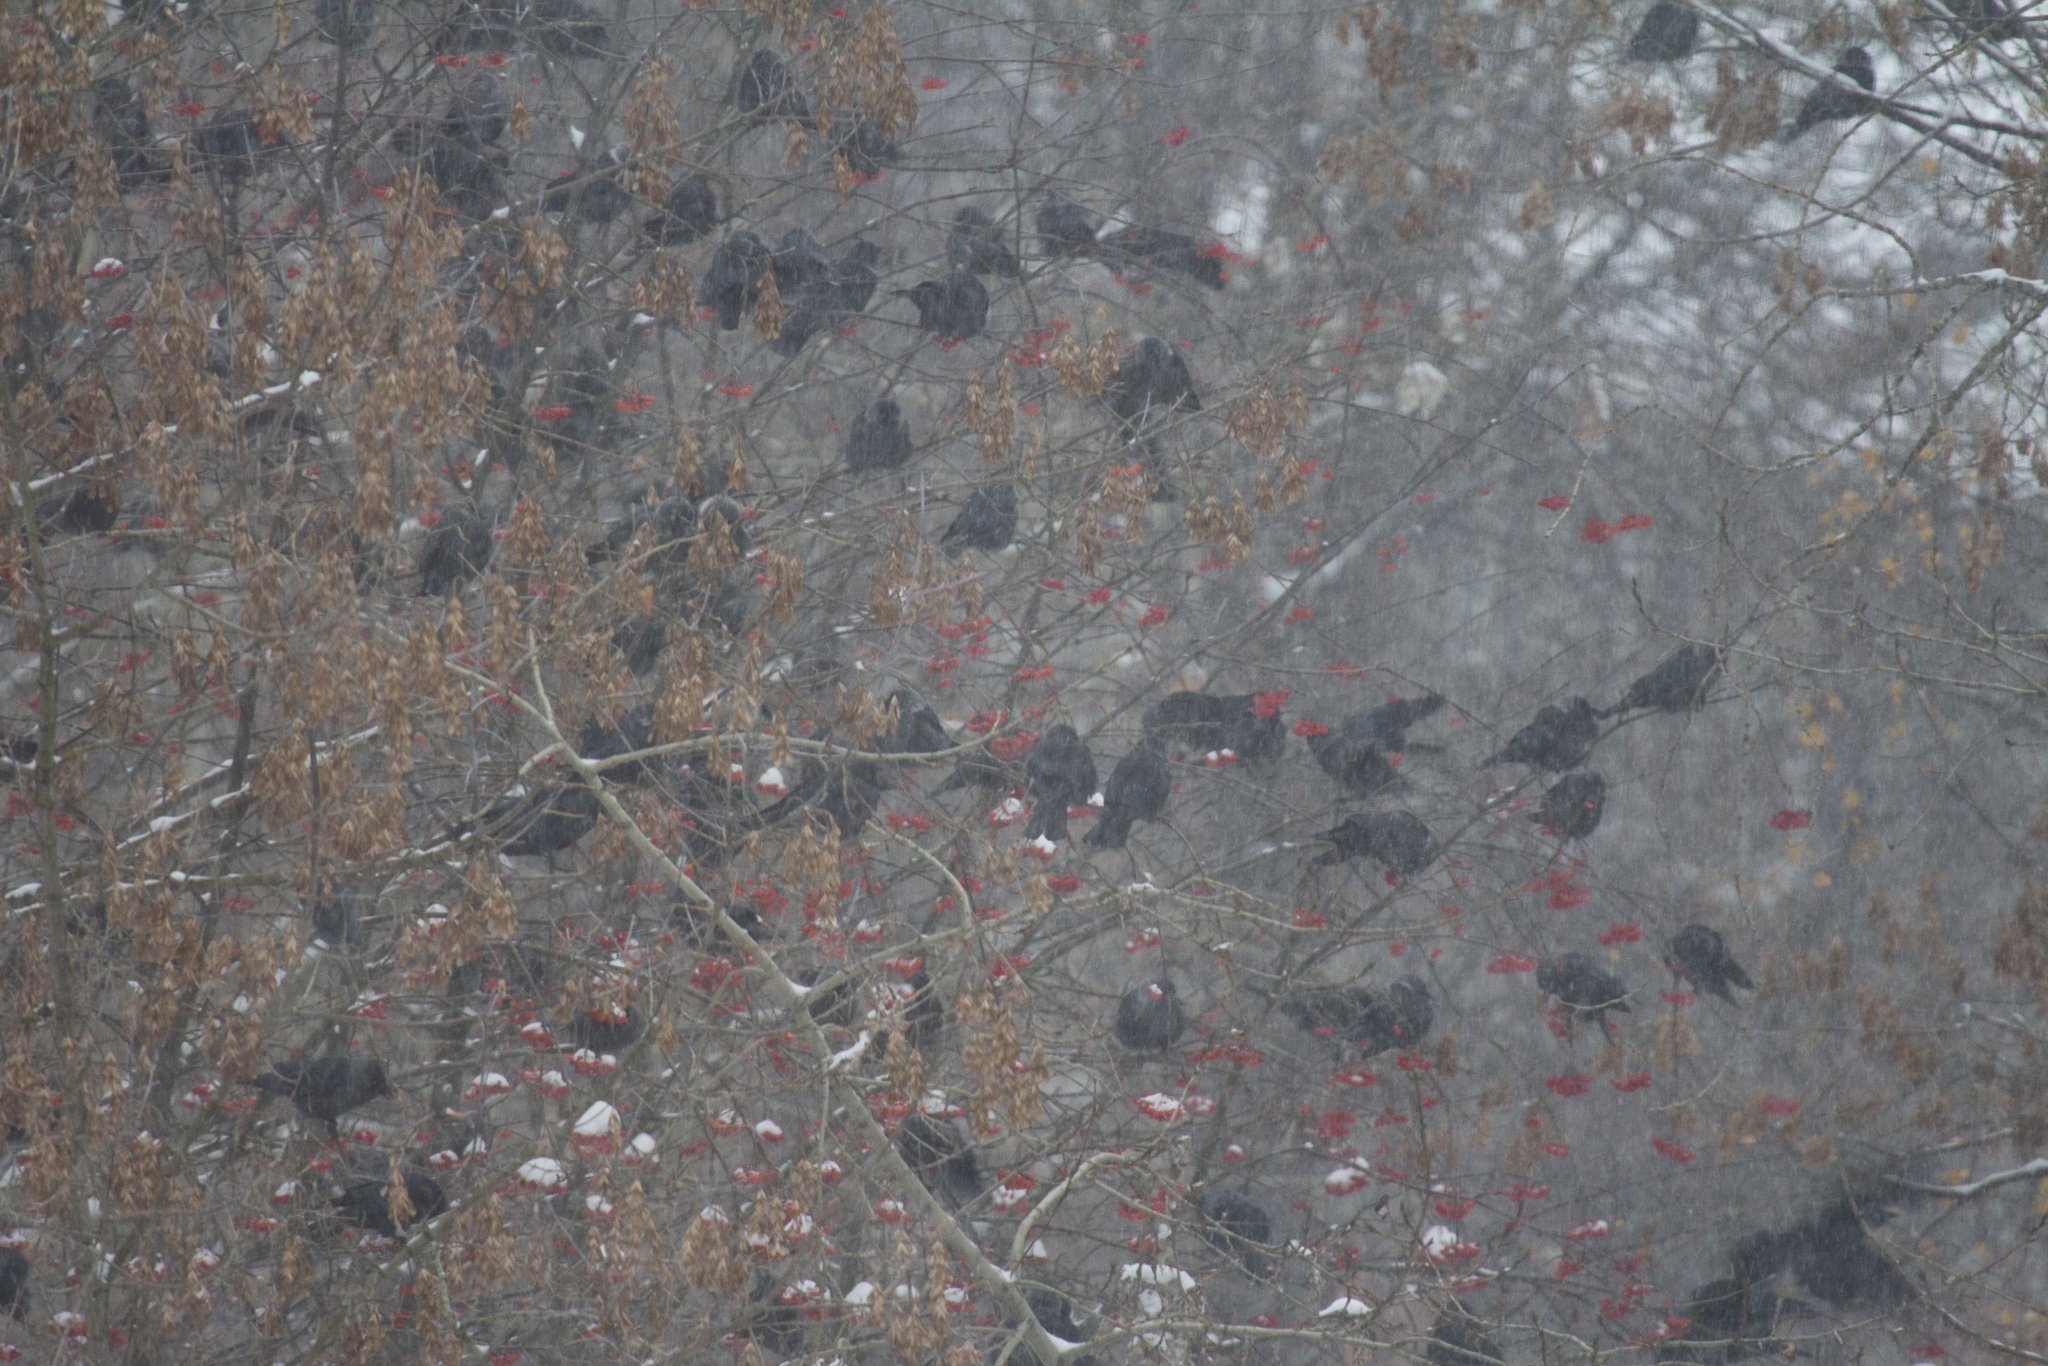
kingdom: Animalia
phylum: Chordata
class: Aves
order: Passeriformes
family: Corvidae
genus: Coloeus
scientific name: Coloeus monedula
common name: Western jackdaw
